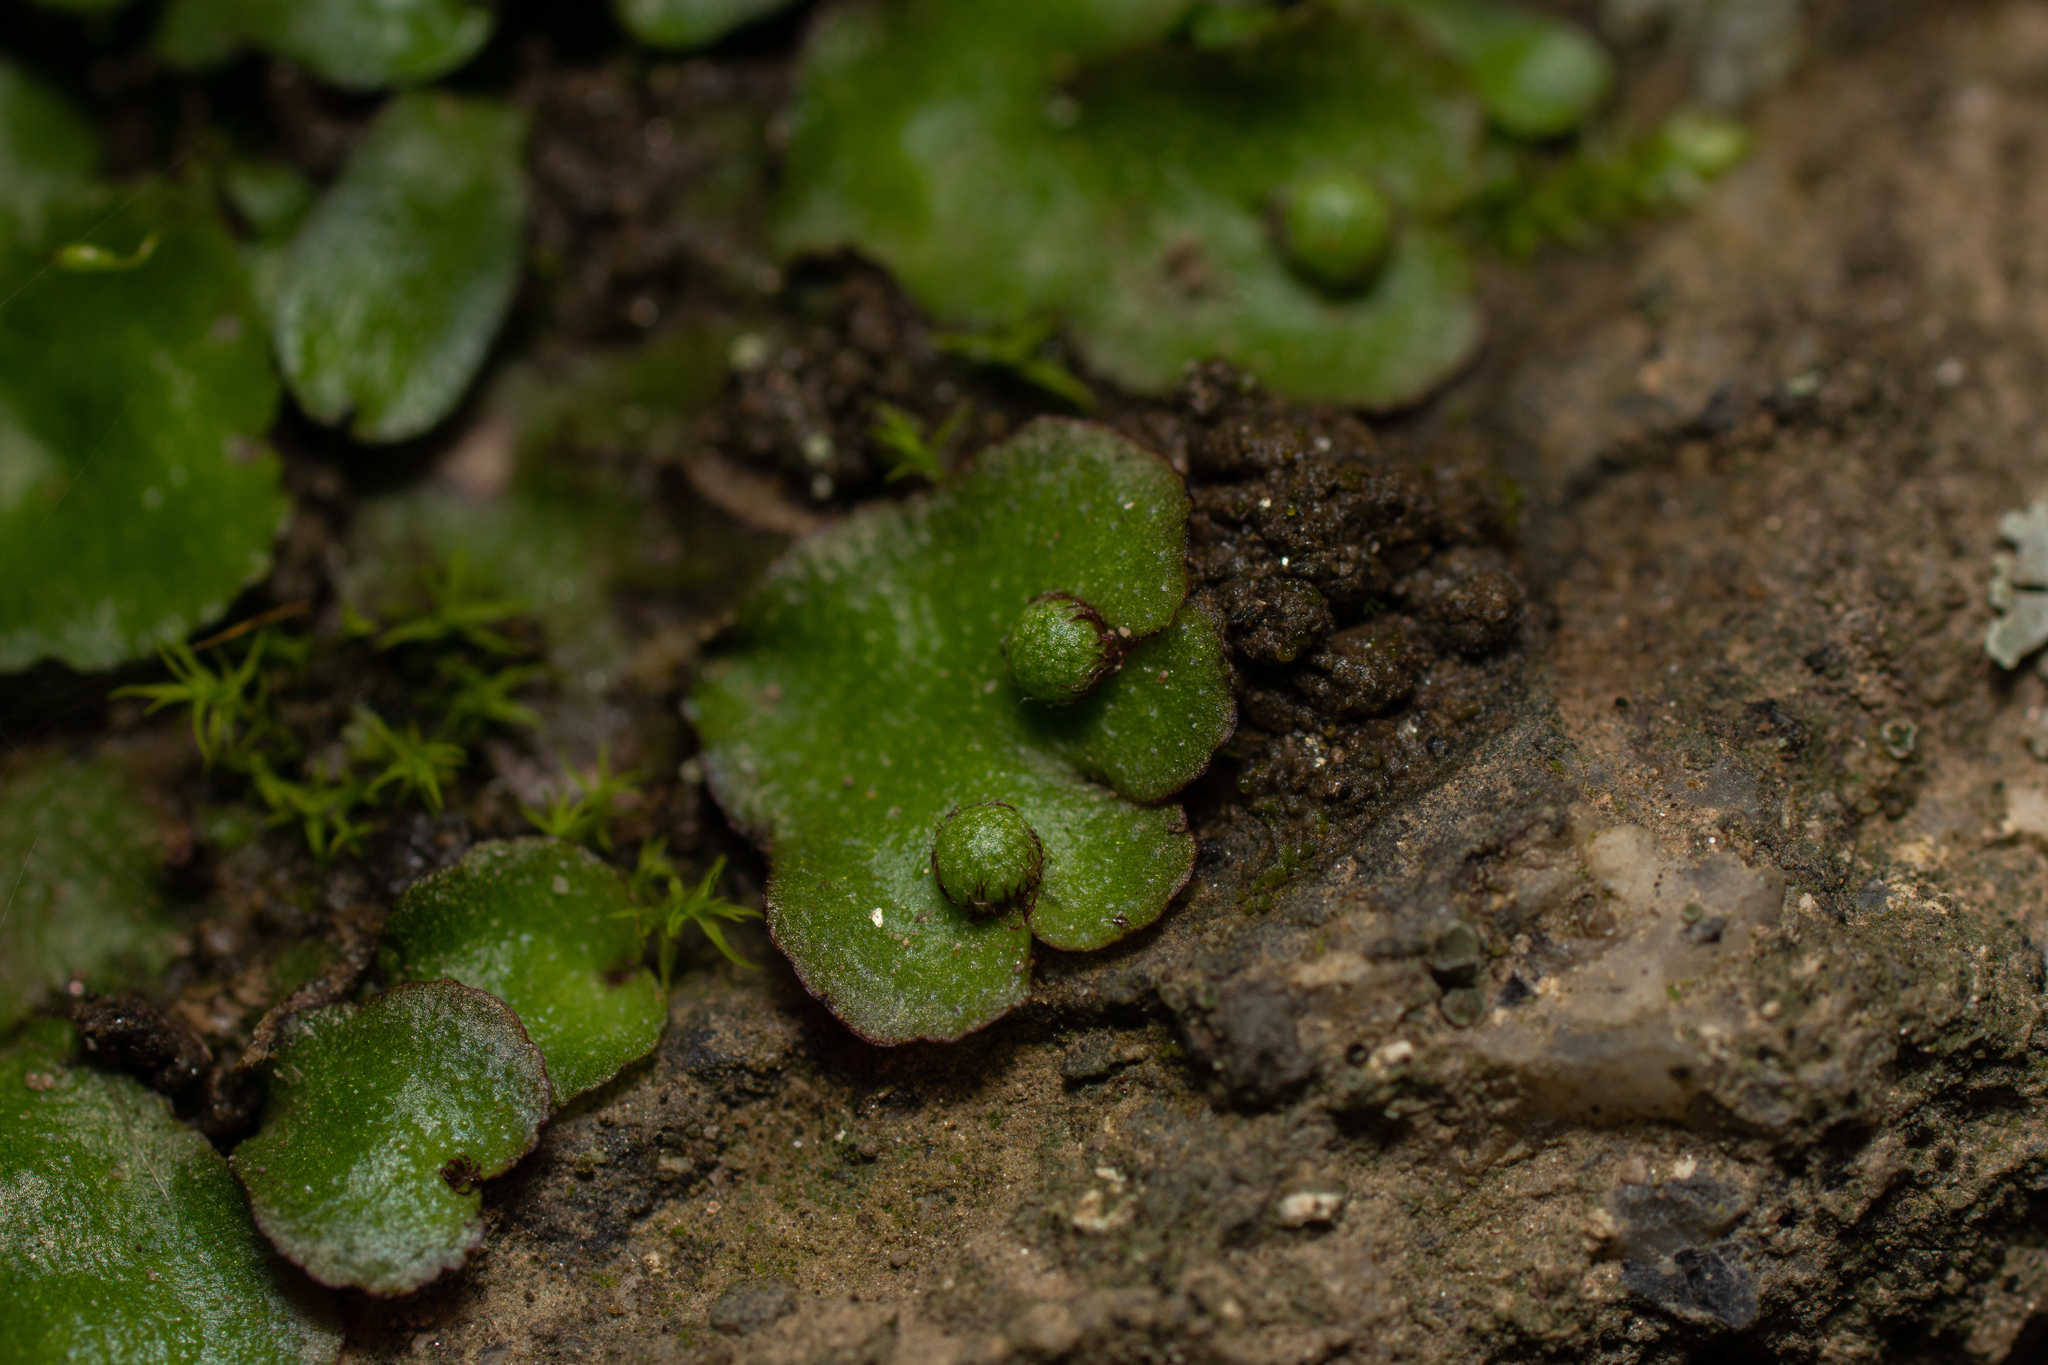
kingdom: Plantae
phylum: Marchantiophyta
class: Marchantiopsida
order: Marchantiales
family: Aytoniaceae
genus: Reboulia
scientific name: Reboulia hemisphaerica
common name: Purple-margined liverwort
